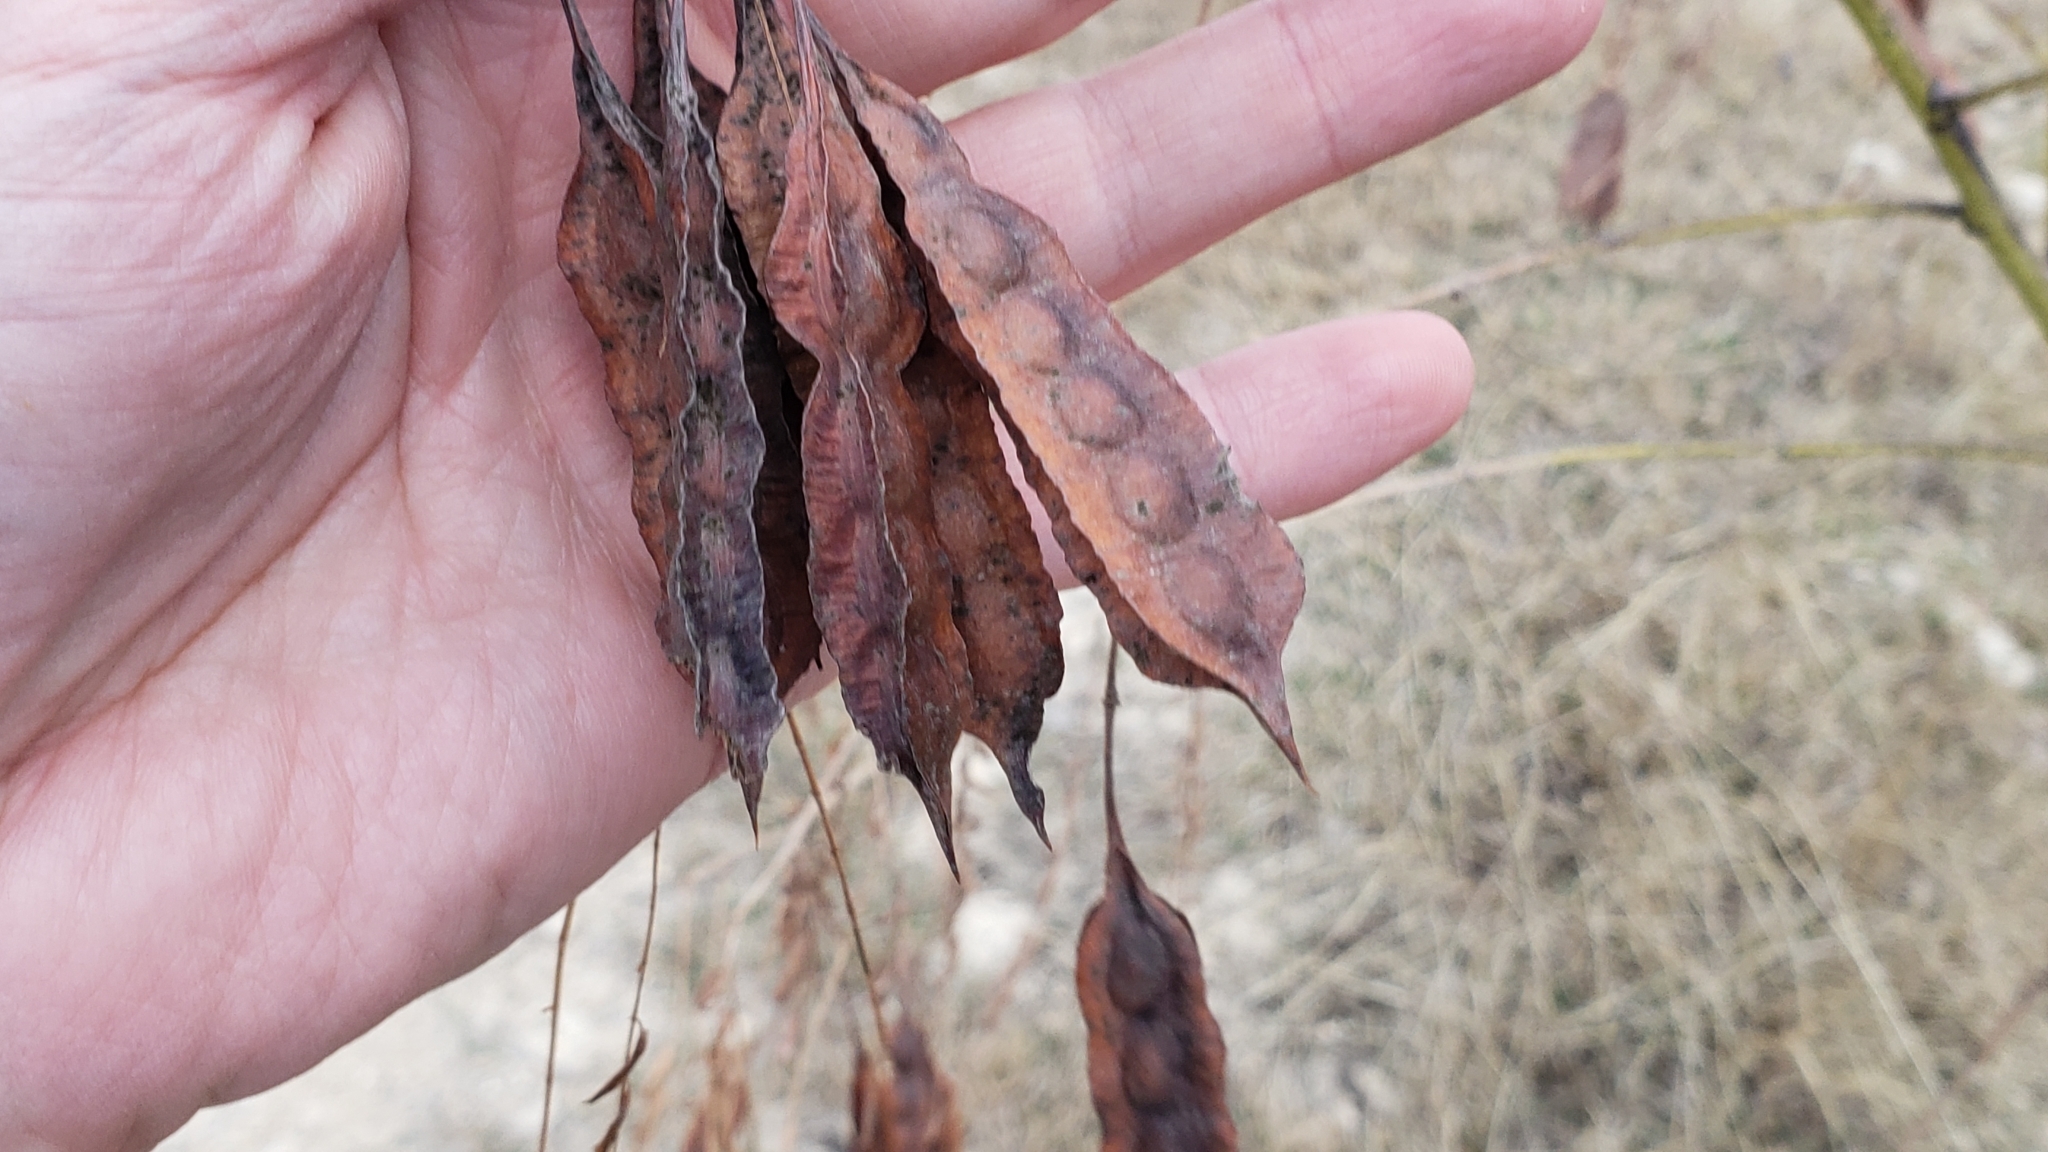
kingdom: Plantae
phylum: Tracheophyta
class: Magnoliopsida
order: Fabales
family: Fabaceae
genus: Sesbania
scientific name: Sesbania drummondii
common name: Poison-bean
